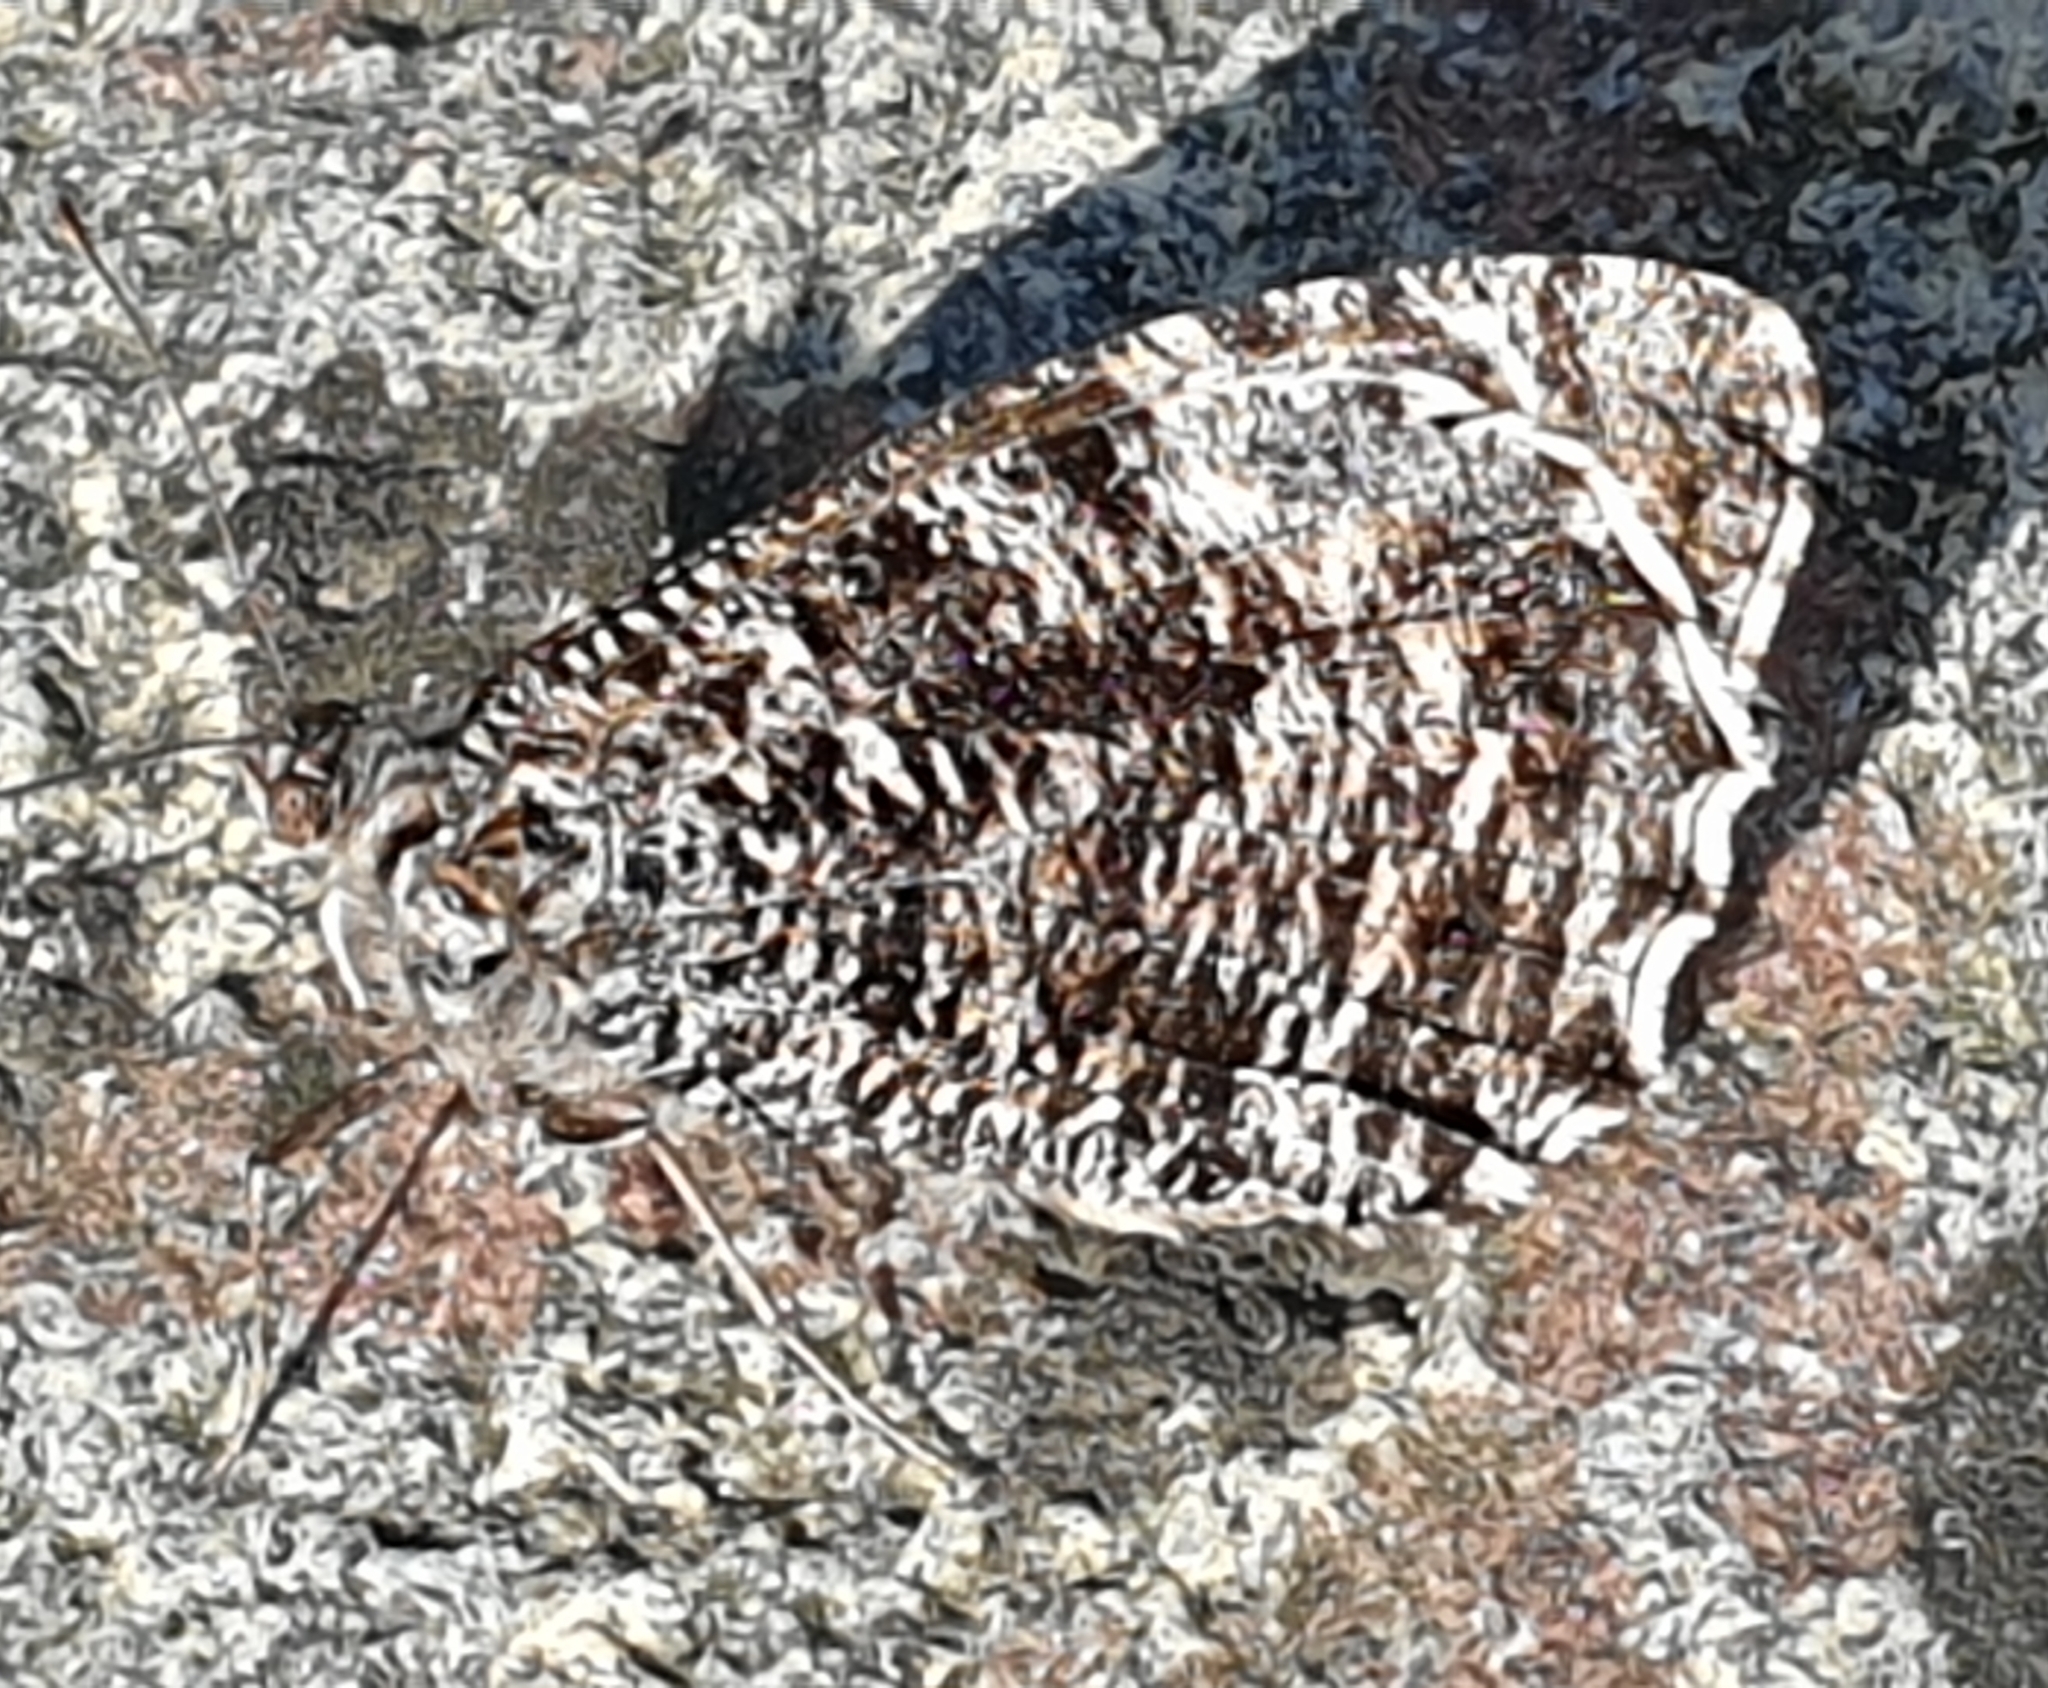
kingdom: Animalia
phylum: Arthropoda
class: Insecta
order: Lepidoptera
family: Nymphalidae
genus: Hipparchia
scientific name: Hipparchia semele
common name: Grayling
